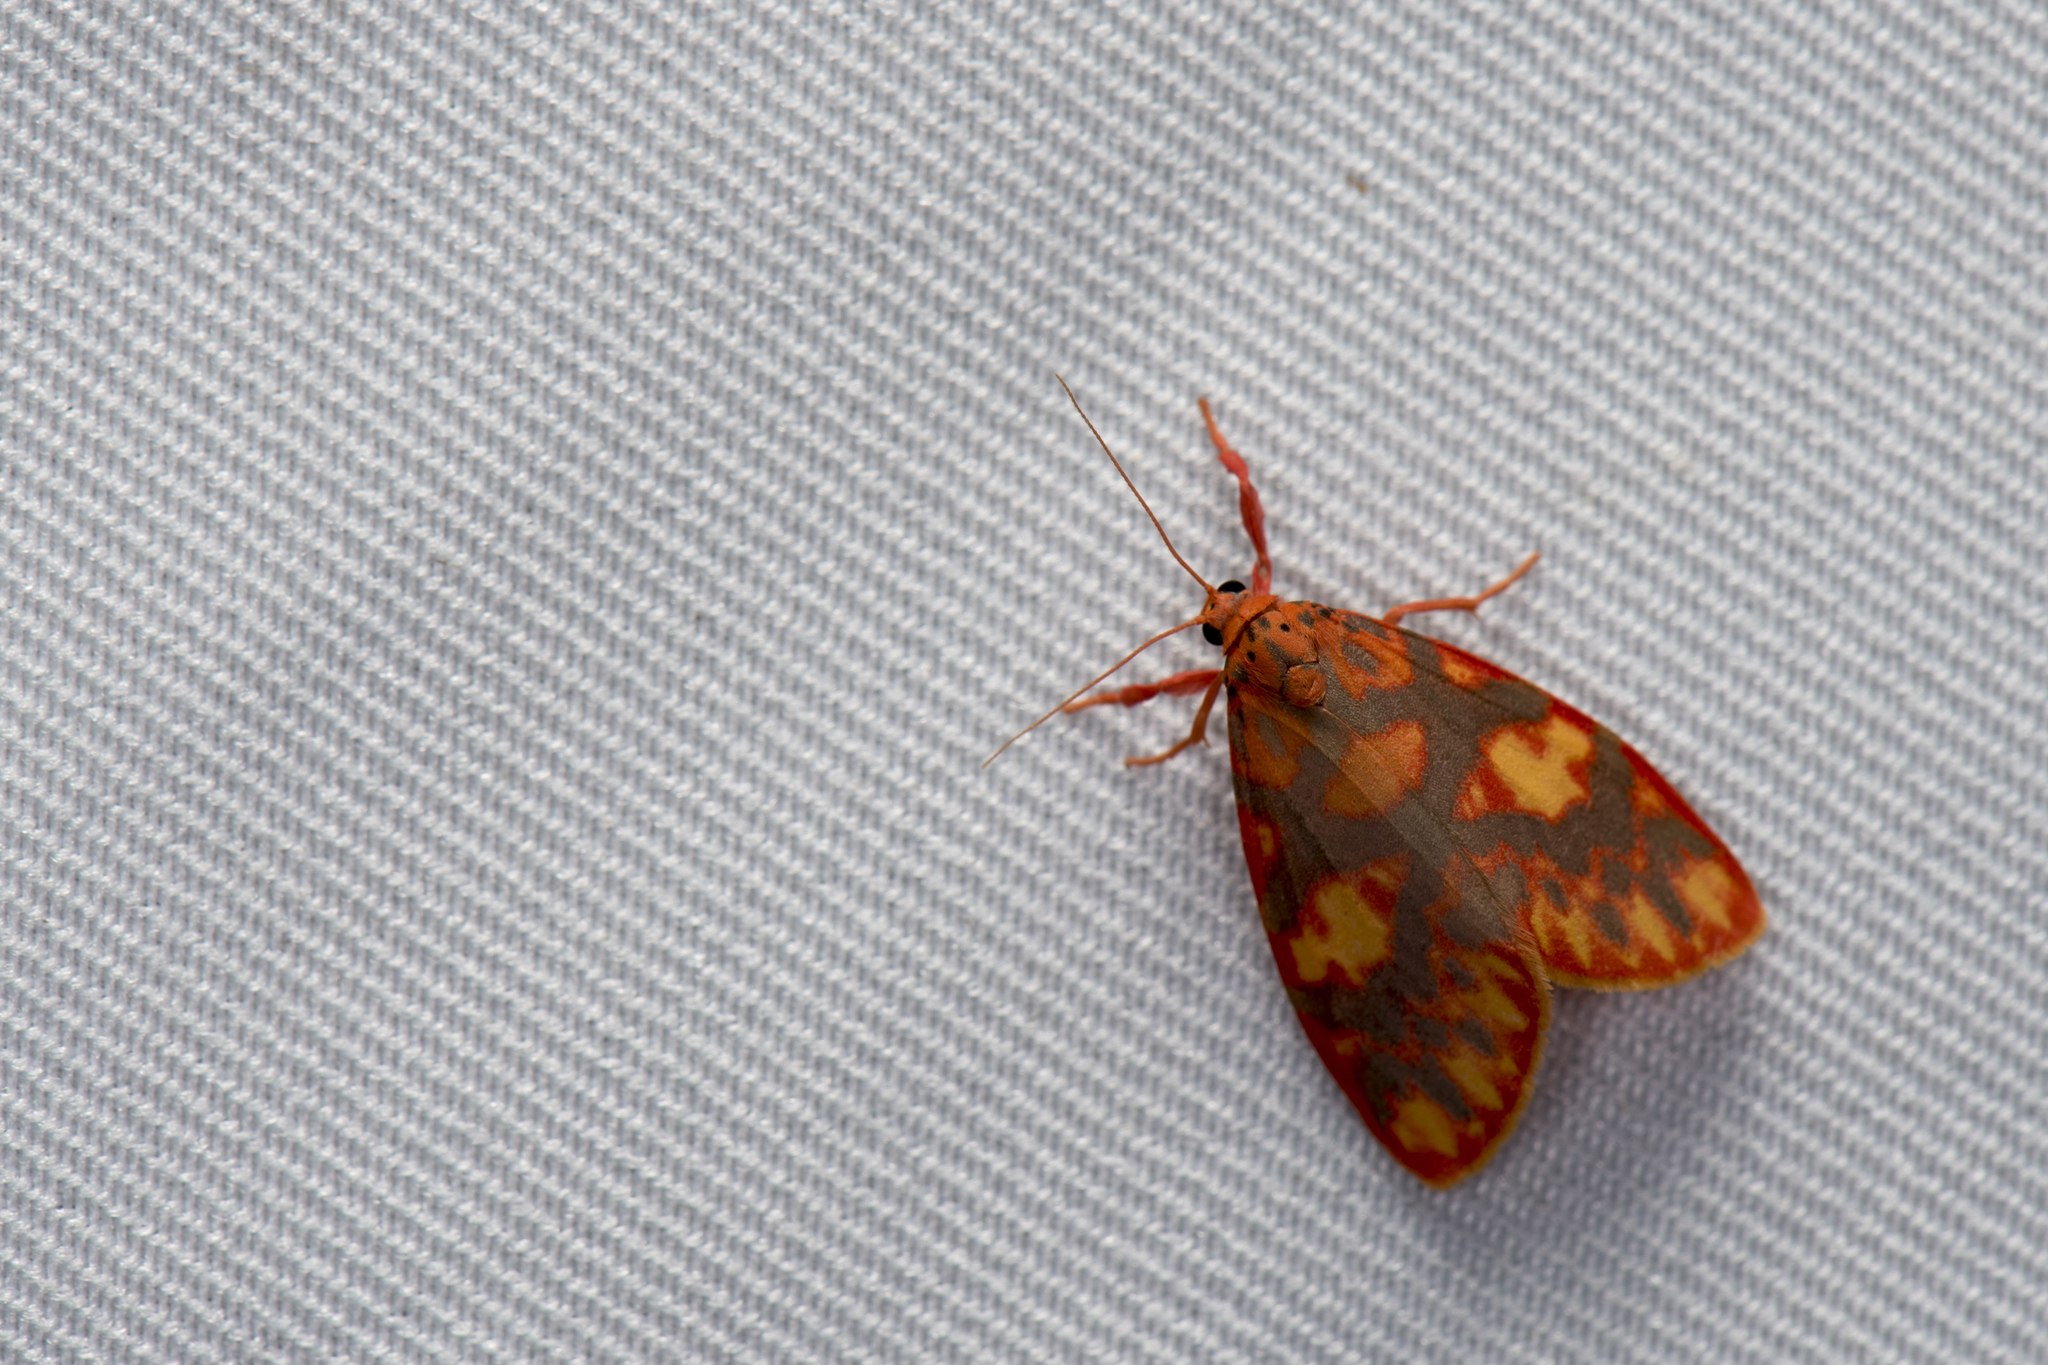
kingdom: Animalia
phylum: Arthropoda
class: Insecta
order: Lepidoptera
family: Erebidae
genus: Floridasura
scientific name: Floridasura tricolor
